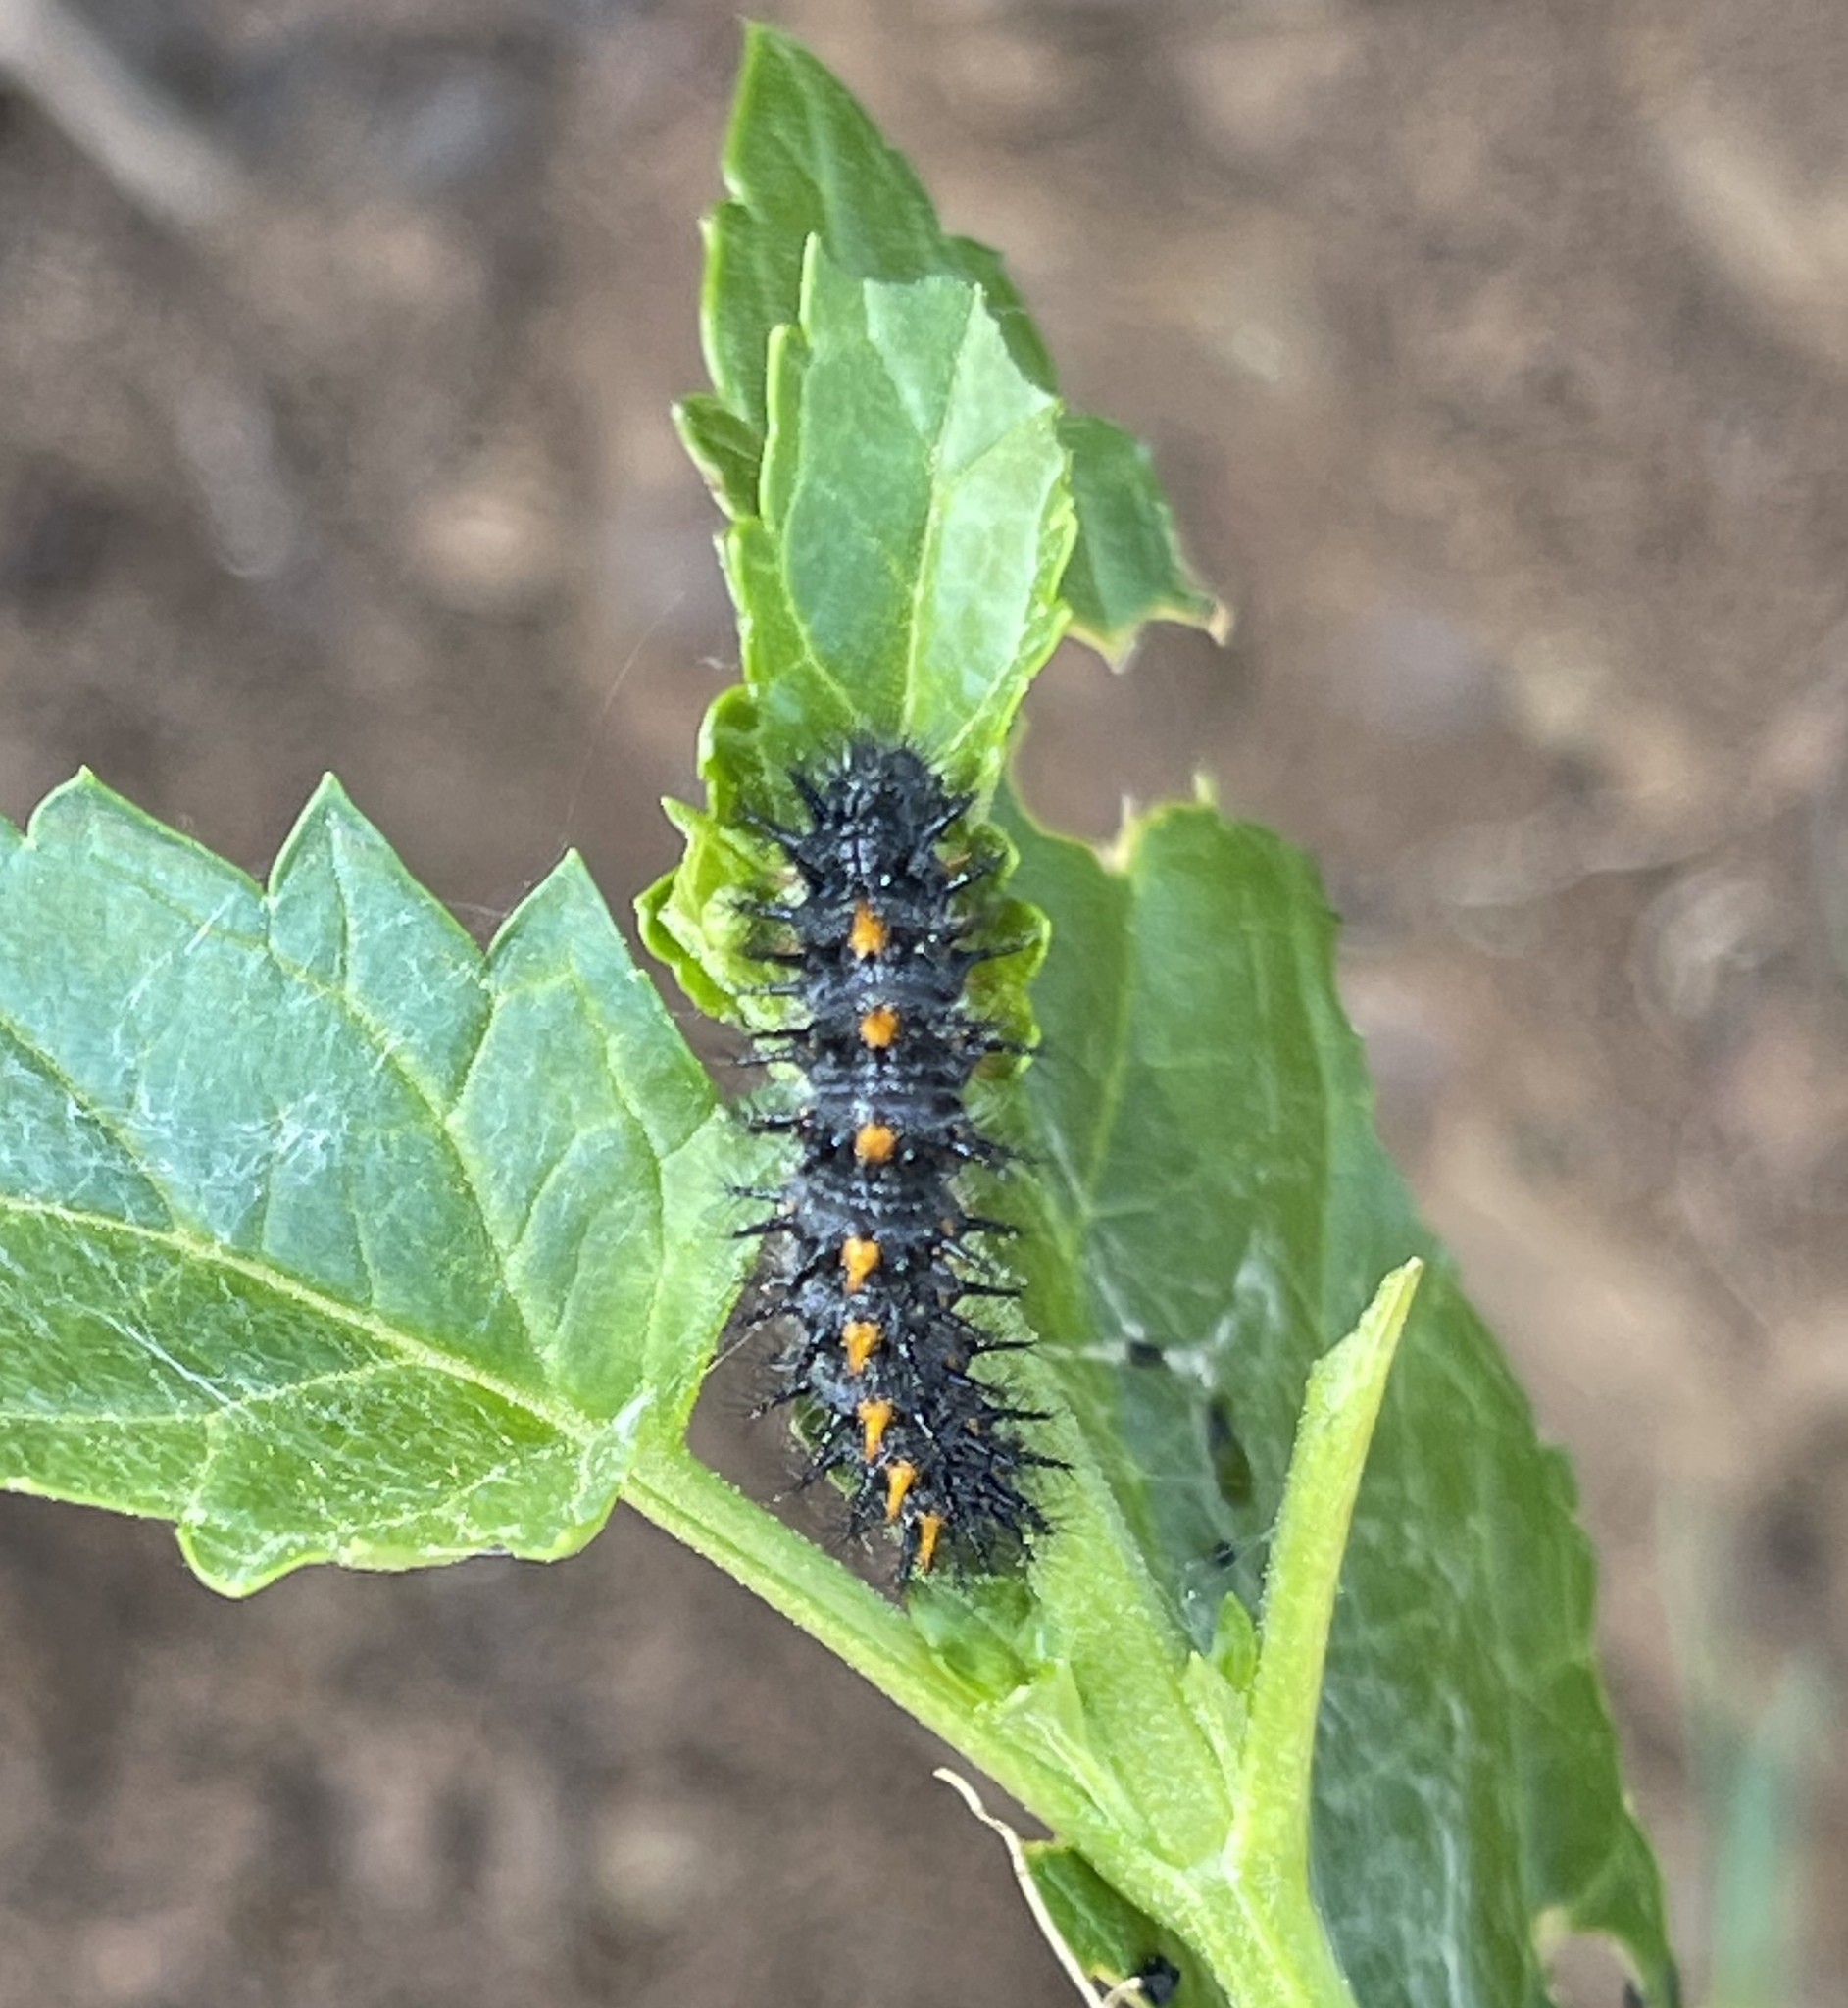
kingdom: Animalia
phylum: Arthropoda
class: Insecta
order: Lepidoptera
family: Nymphalidae
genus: Occidryas
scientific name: Occidryas chalcedona
